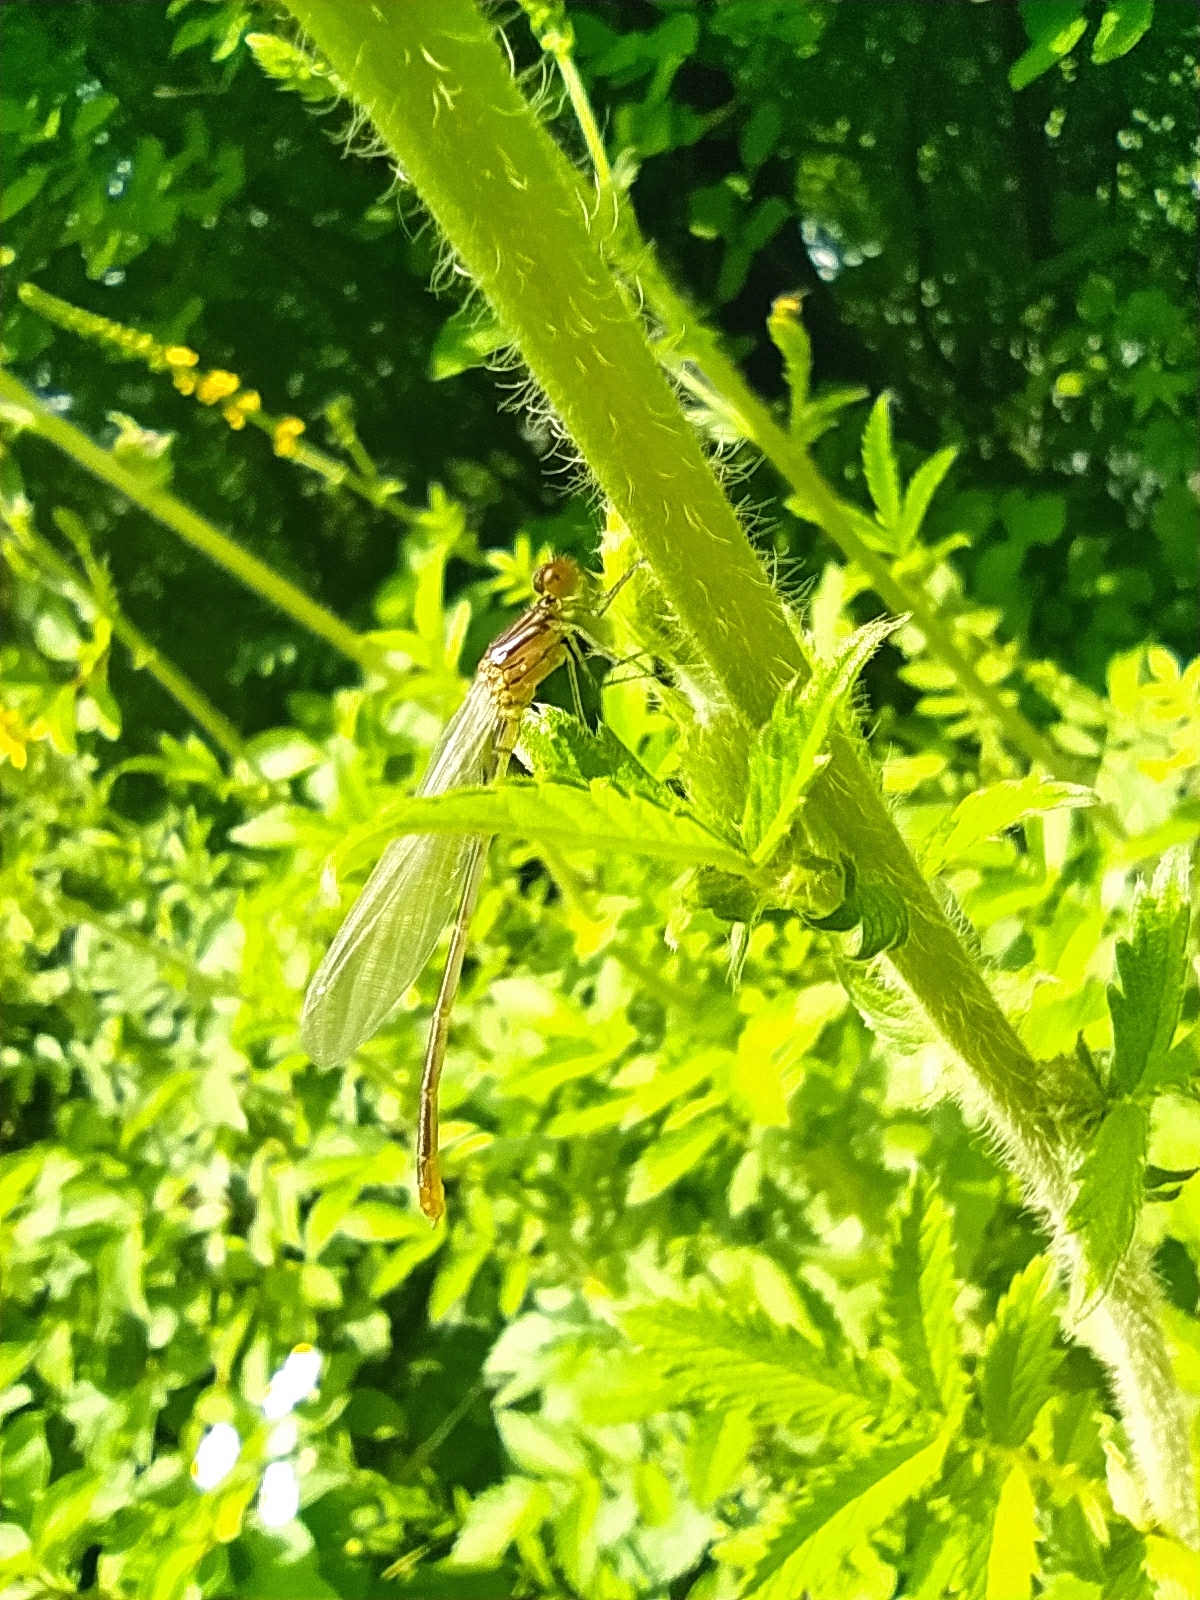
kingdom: Animalia
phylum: Arthropoda
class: Insecta
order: Odonata
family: Coenagrionidae
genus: Erythromma
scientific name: Erythromma viridulum
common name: Small red-eyed damselfly
